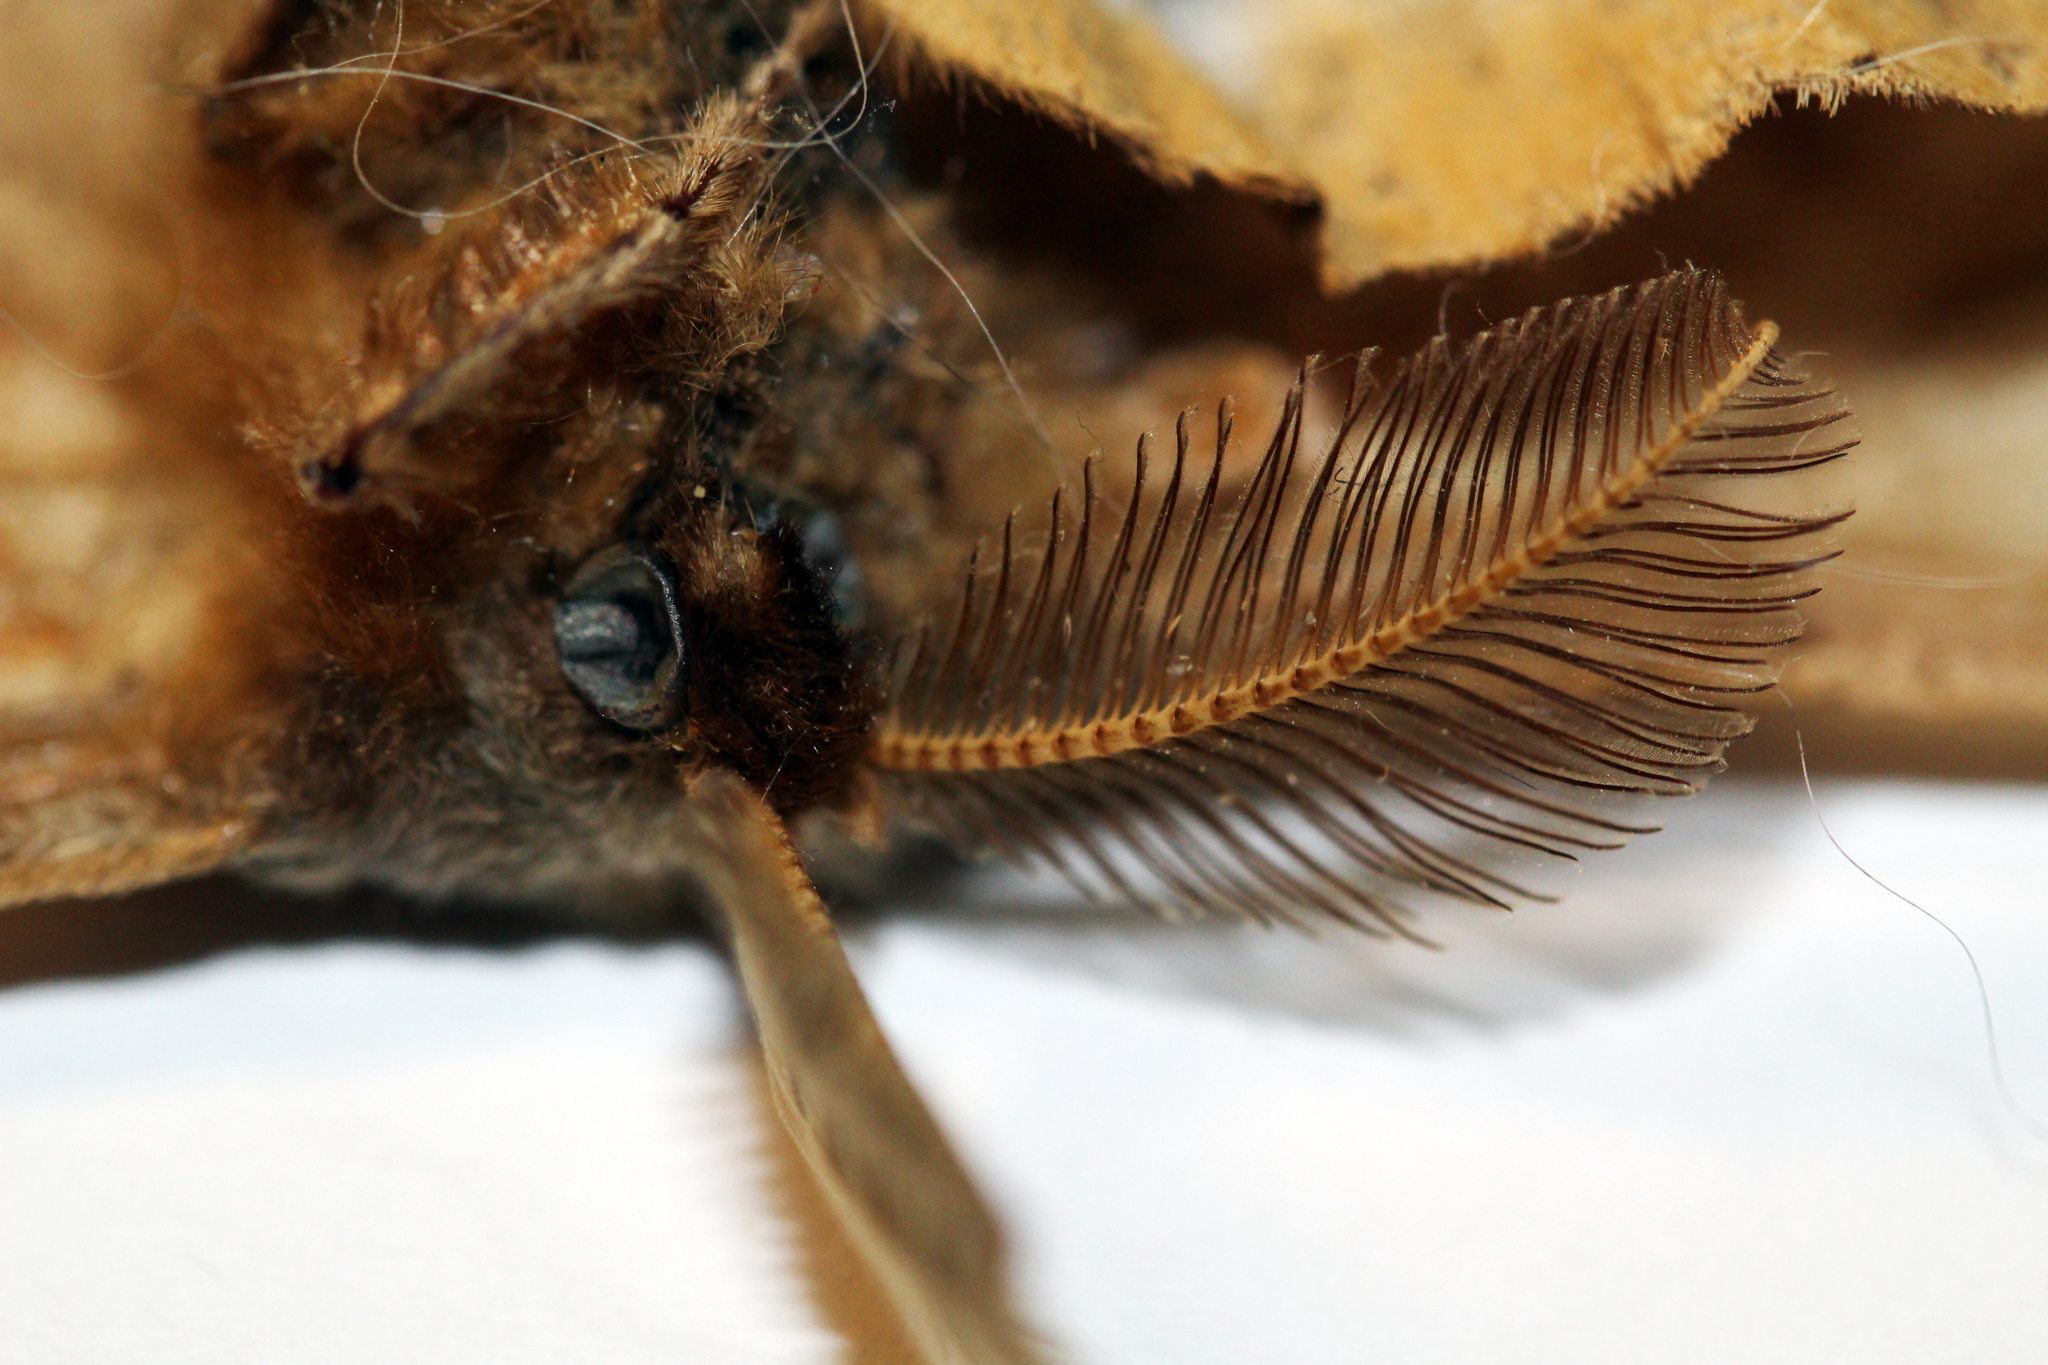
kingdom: Animalia
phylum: Arthropoda
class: Insecta
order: Lepidoptera
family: Saturniidae
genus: Antheraea
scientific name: Antheraea polyphemus
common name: Polyphemus moth
